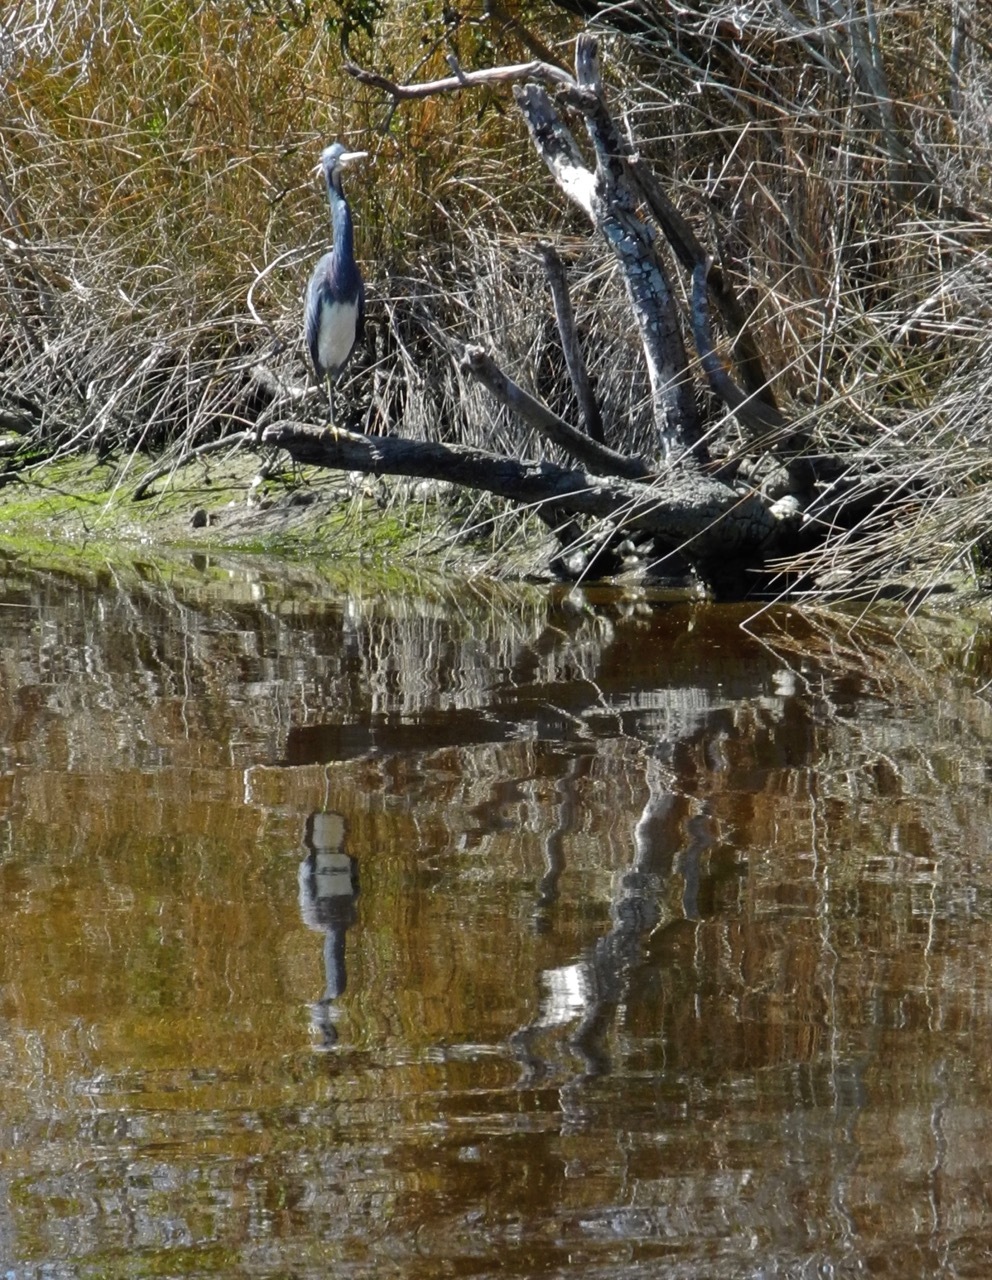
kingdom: Animalia
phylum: Chordata
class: Aves
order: Pelecaniformes
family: Ardeidae
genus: Egretta
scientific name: Egretta tricolor
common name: Tricolored heron
